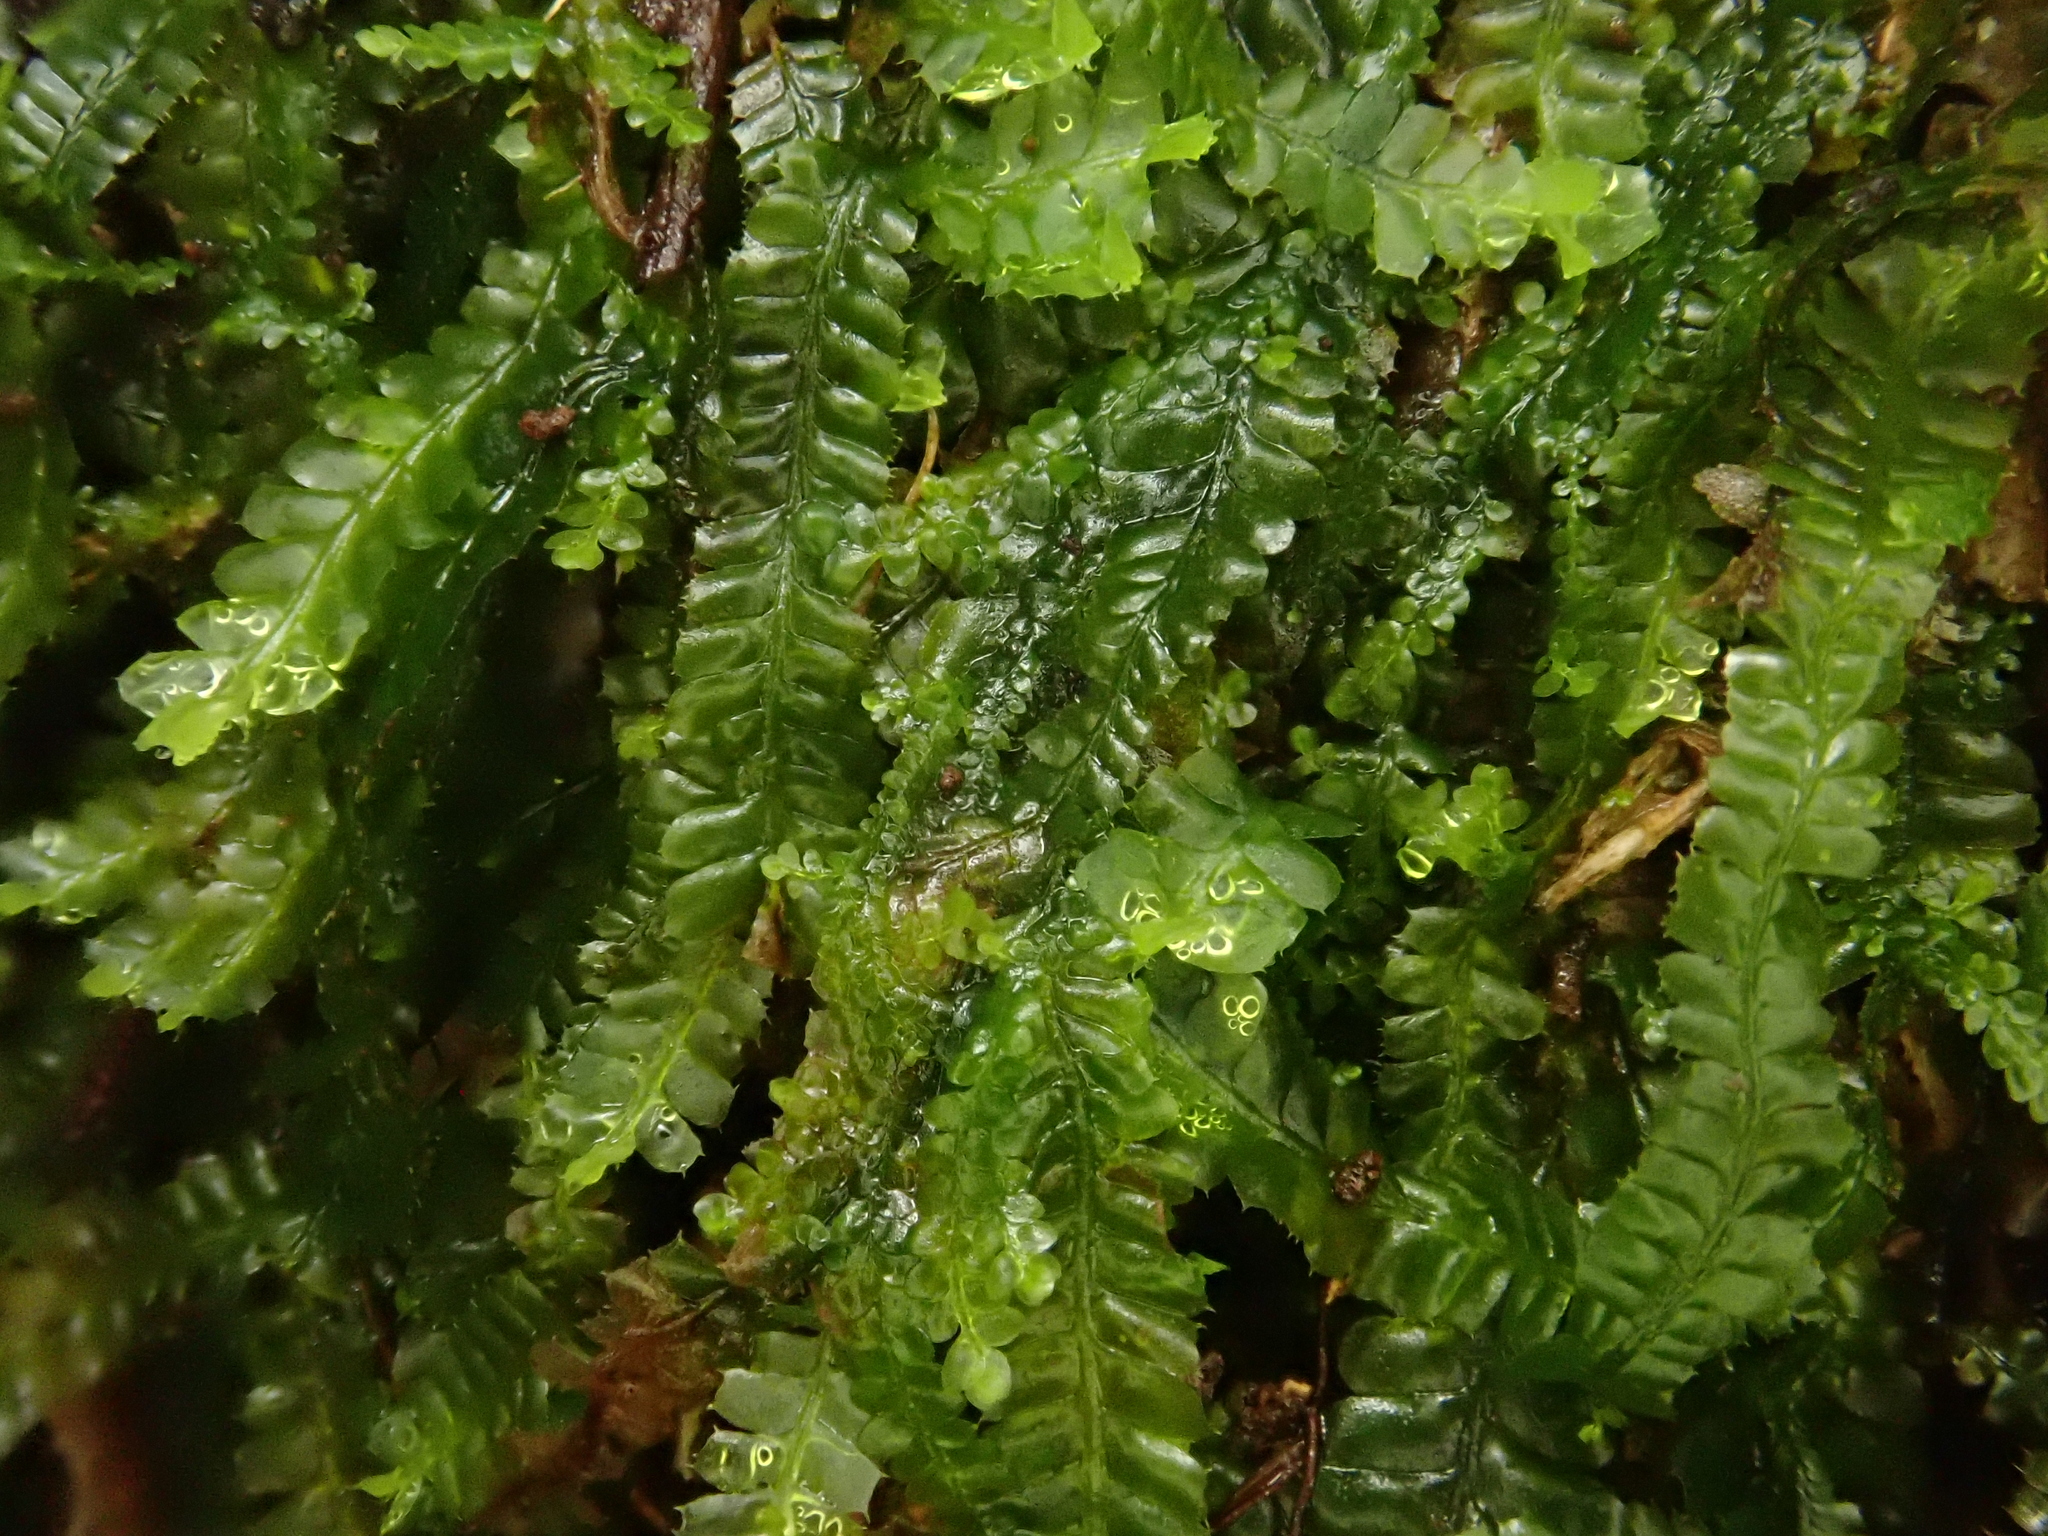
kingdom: Plantae
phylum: Marchantiophyta
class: Jungermanniopsida
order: Jungermanniales
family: Lophocoleaceae
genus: Heteroscyphus
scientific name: Heteroscyphus denticulatus
